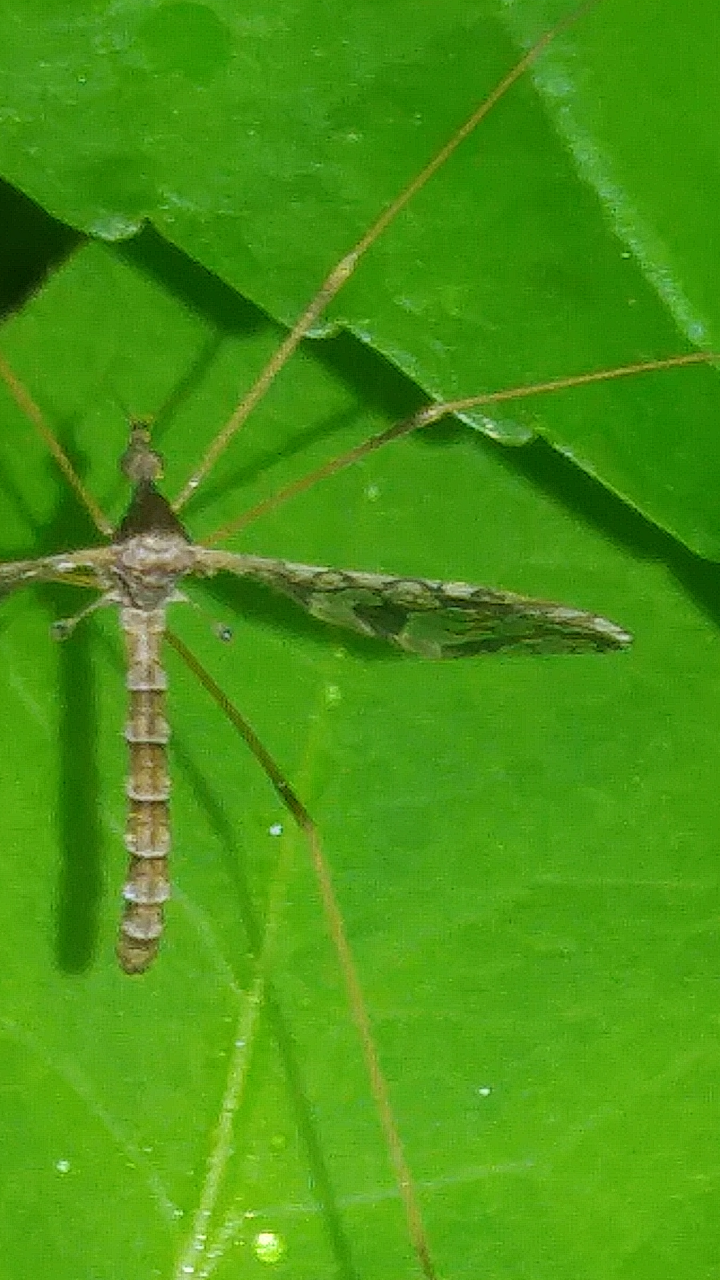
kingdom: Animalia
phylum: Arthropoda
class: Insecta
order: Diptera
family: Limoniidae
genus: Epiphragma
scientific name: Epiphragma solatrix
